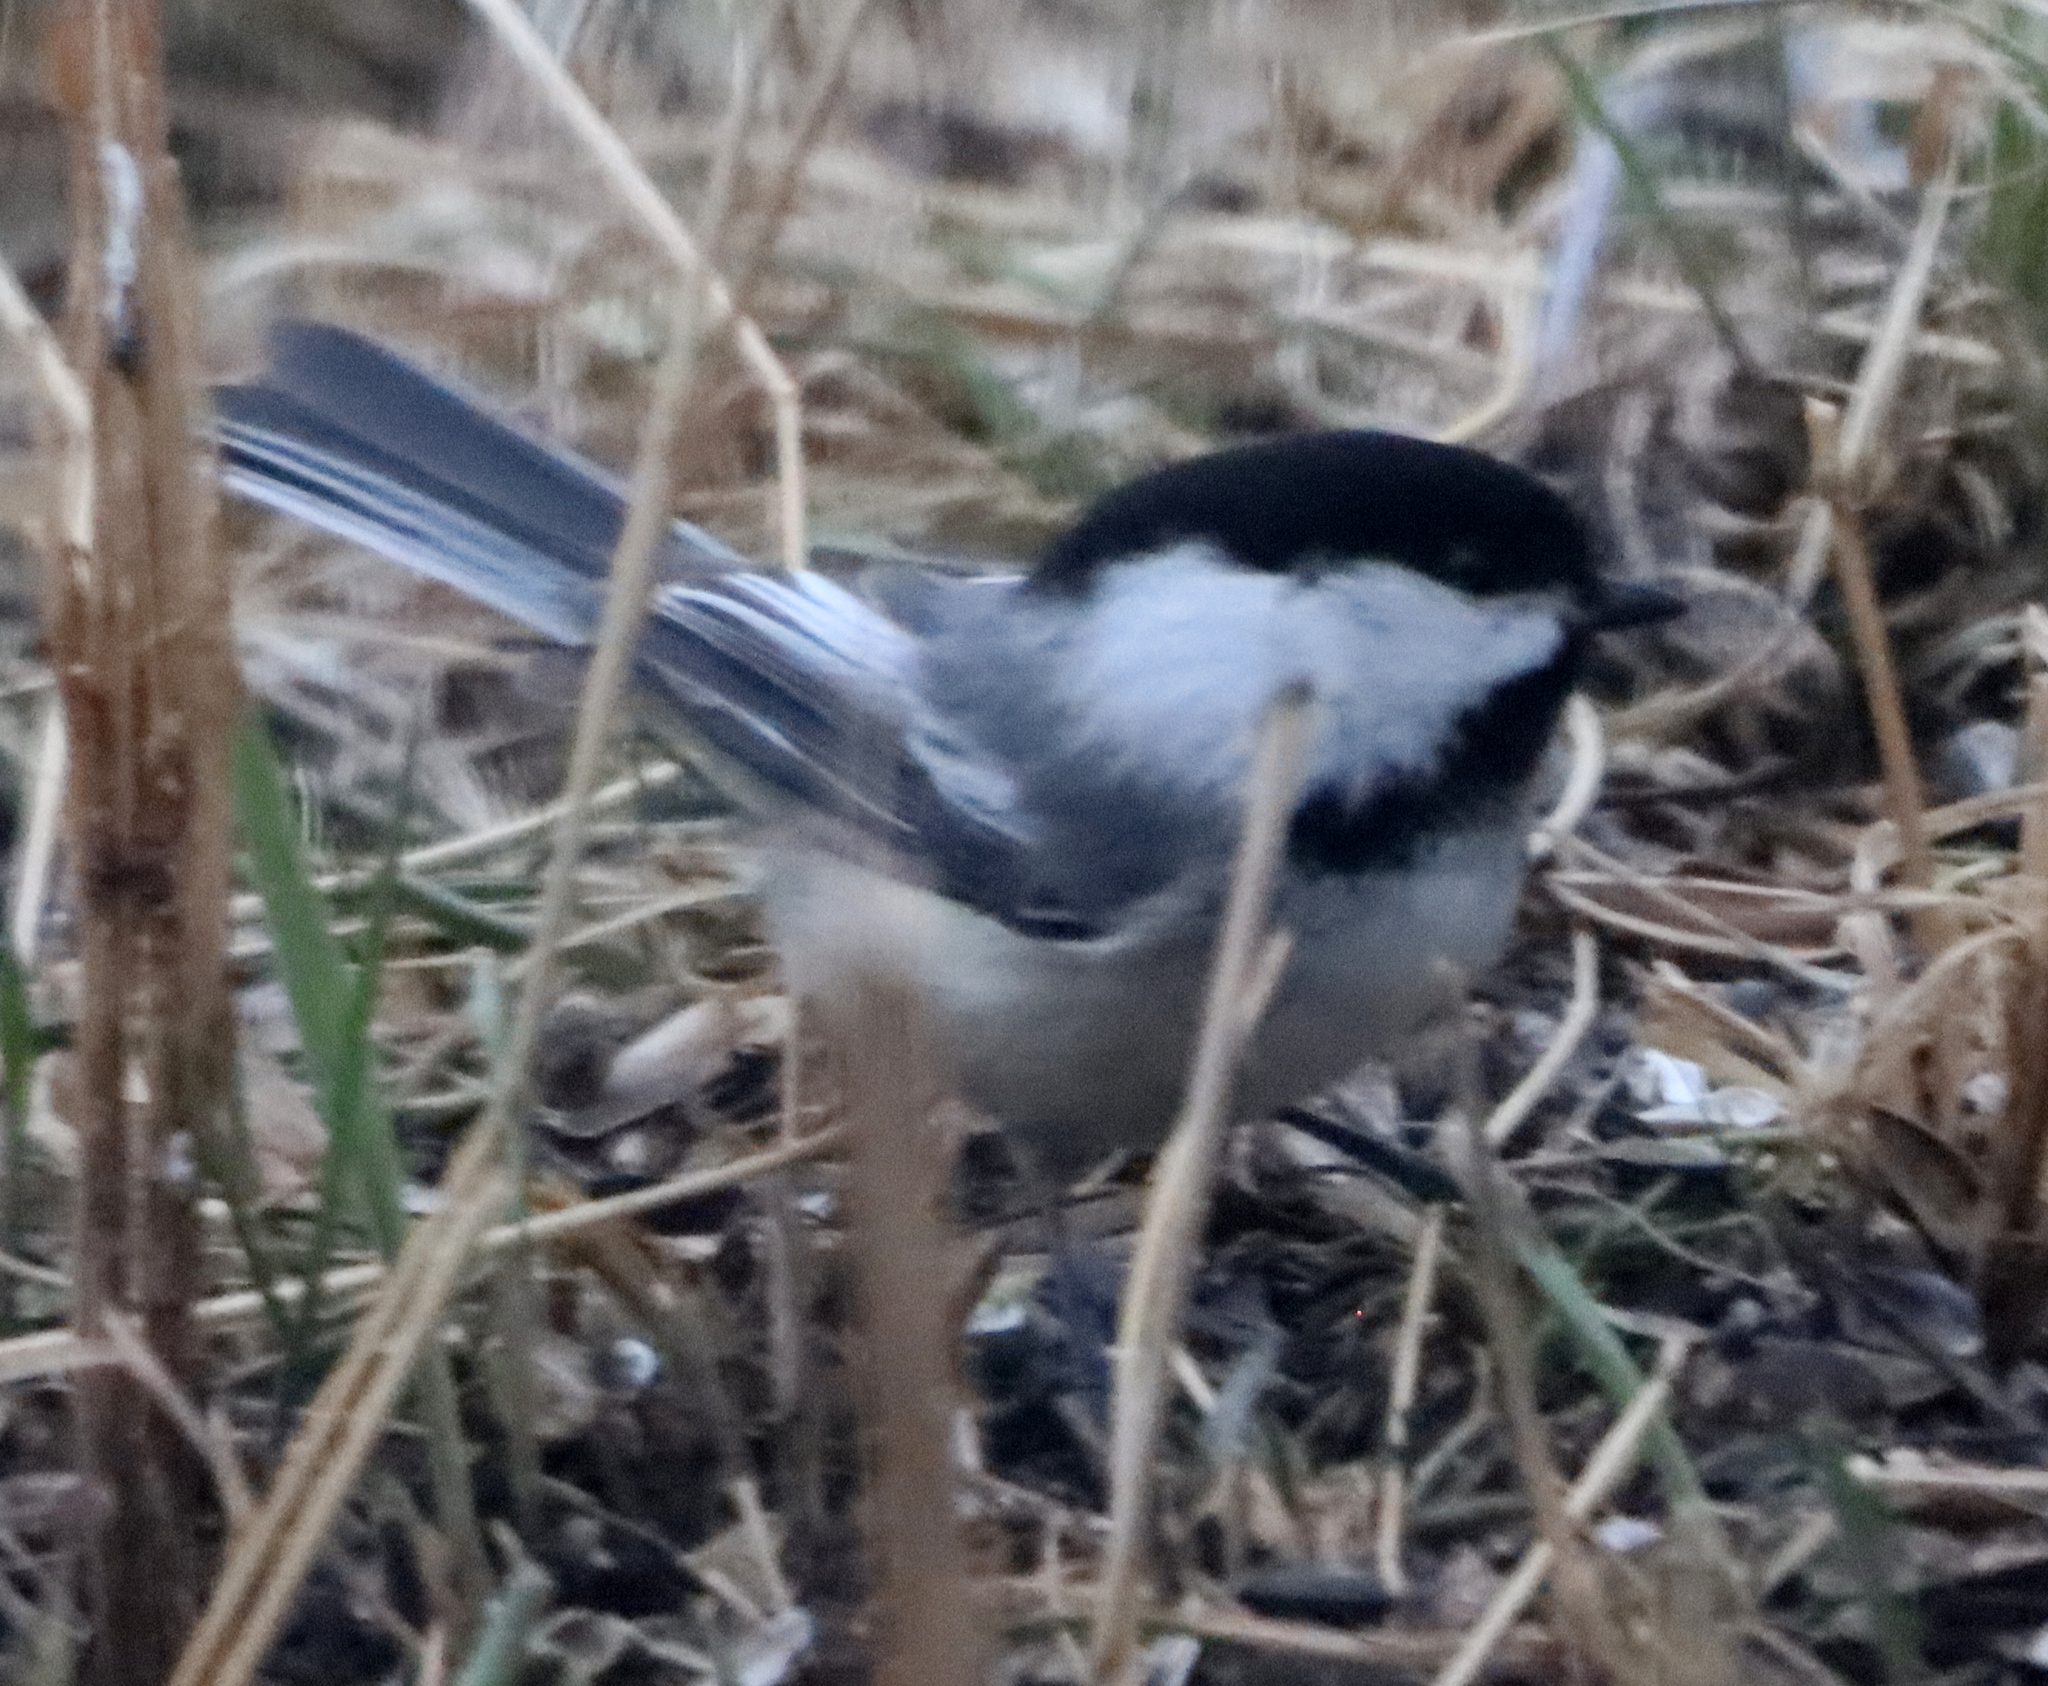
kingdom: Animalia
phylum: Chordata
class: Aves
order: Passeriformes
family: Paridae
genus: Poecile
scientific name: Poecile atricapillus
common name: Black-capped chickadee
